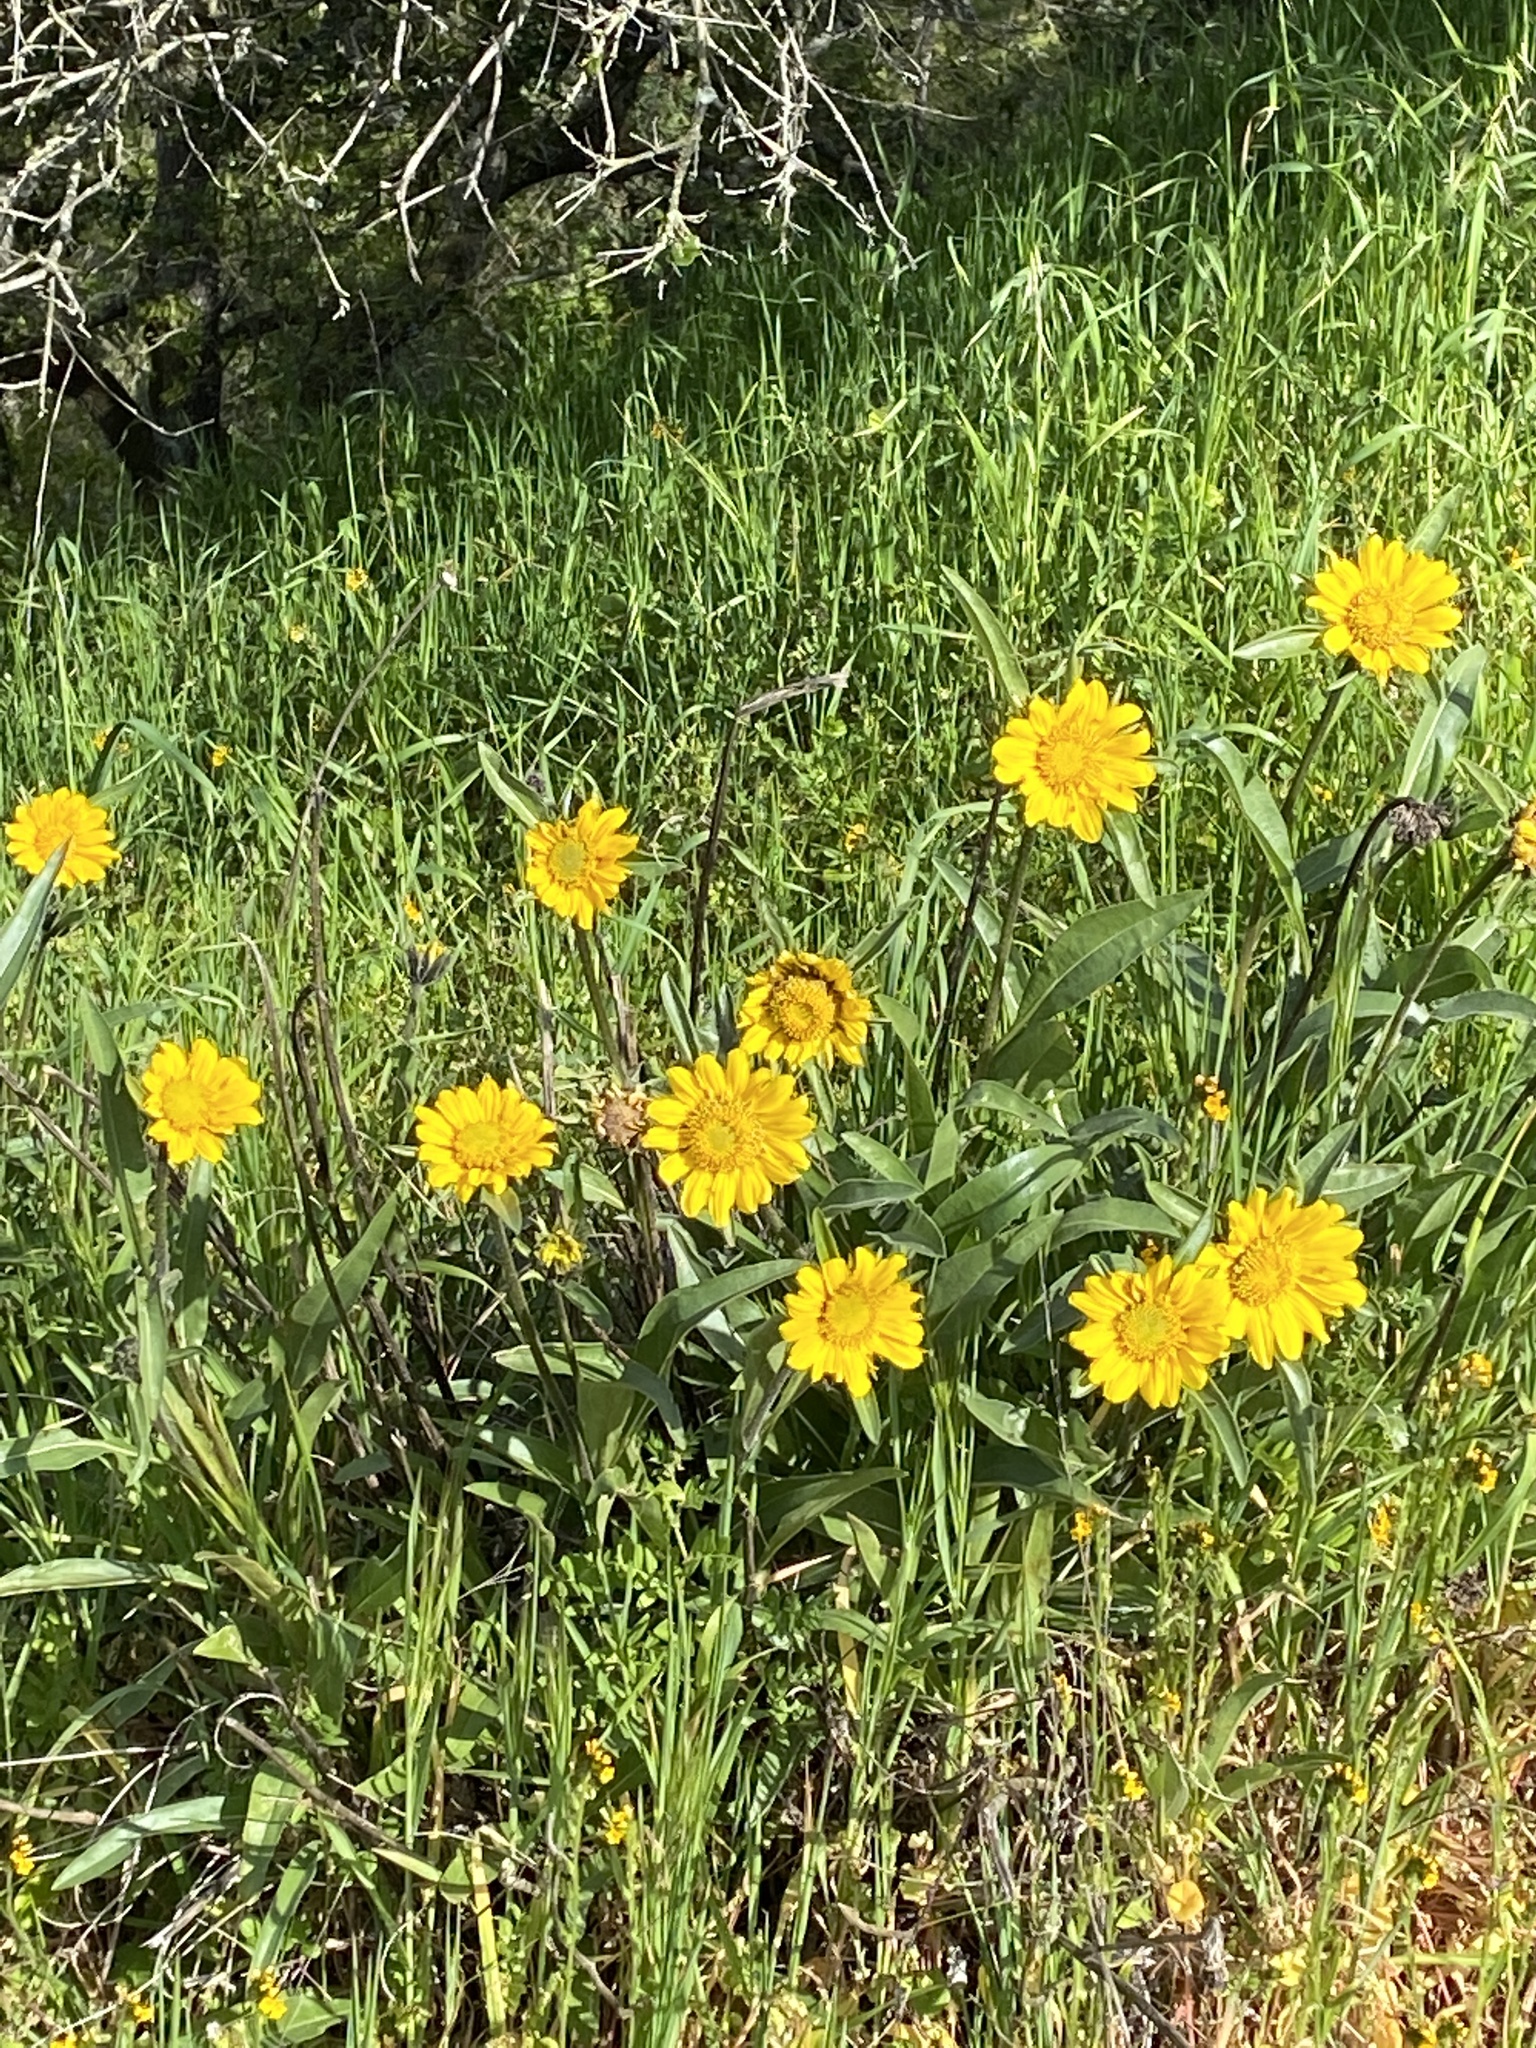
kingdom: Plantae
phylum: Tracheophyta
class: Magnoliopsida
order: Asterales
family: Asteraceae
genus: Helianthella
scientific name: Helianthella castanea
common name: Diablo helianthella
